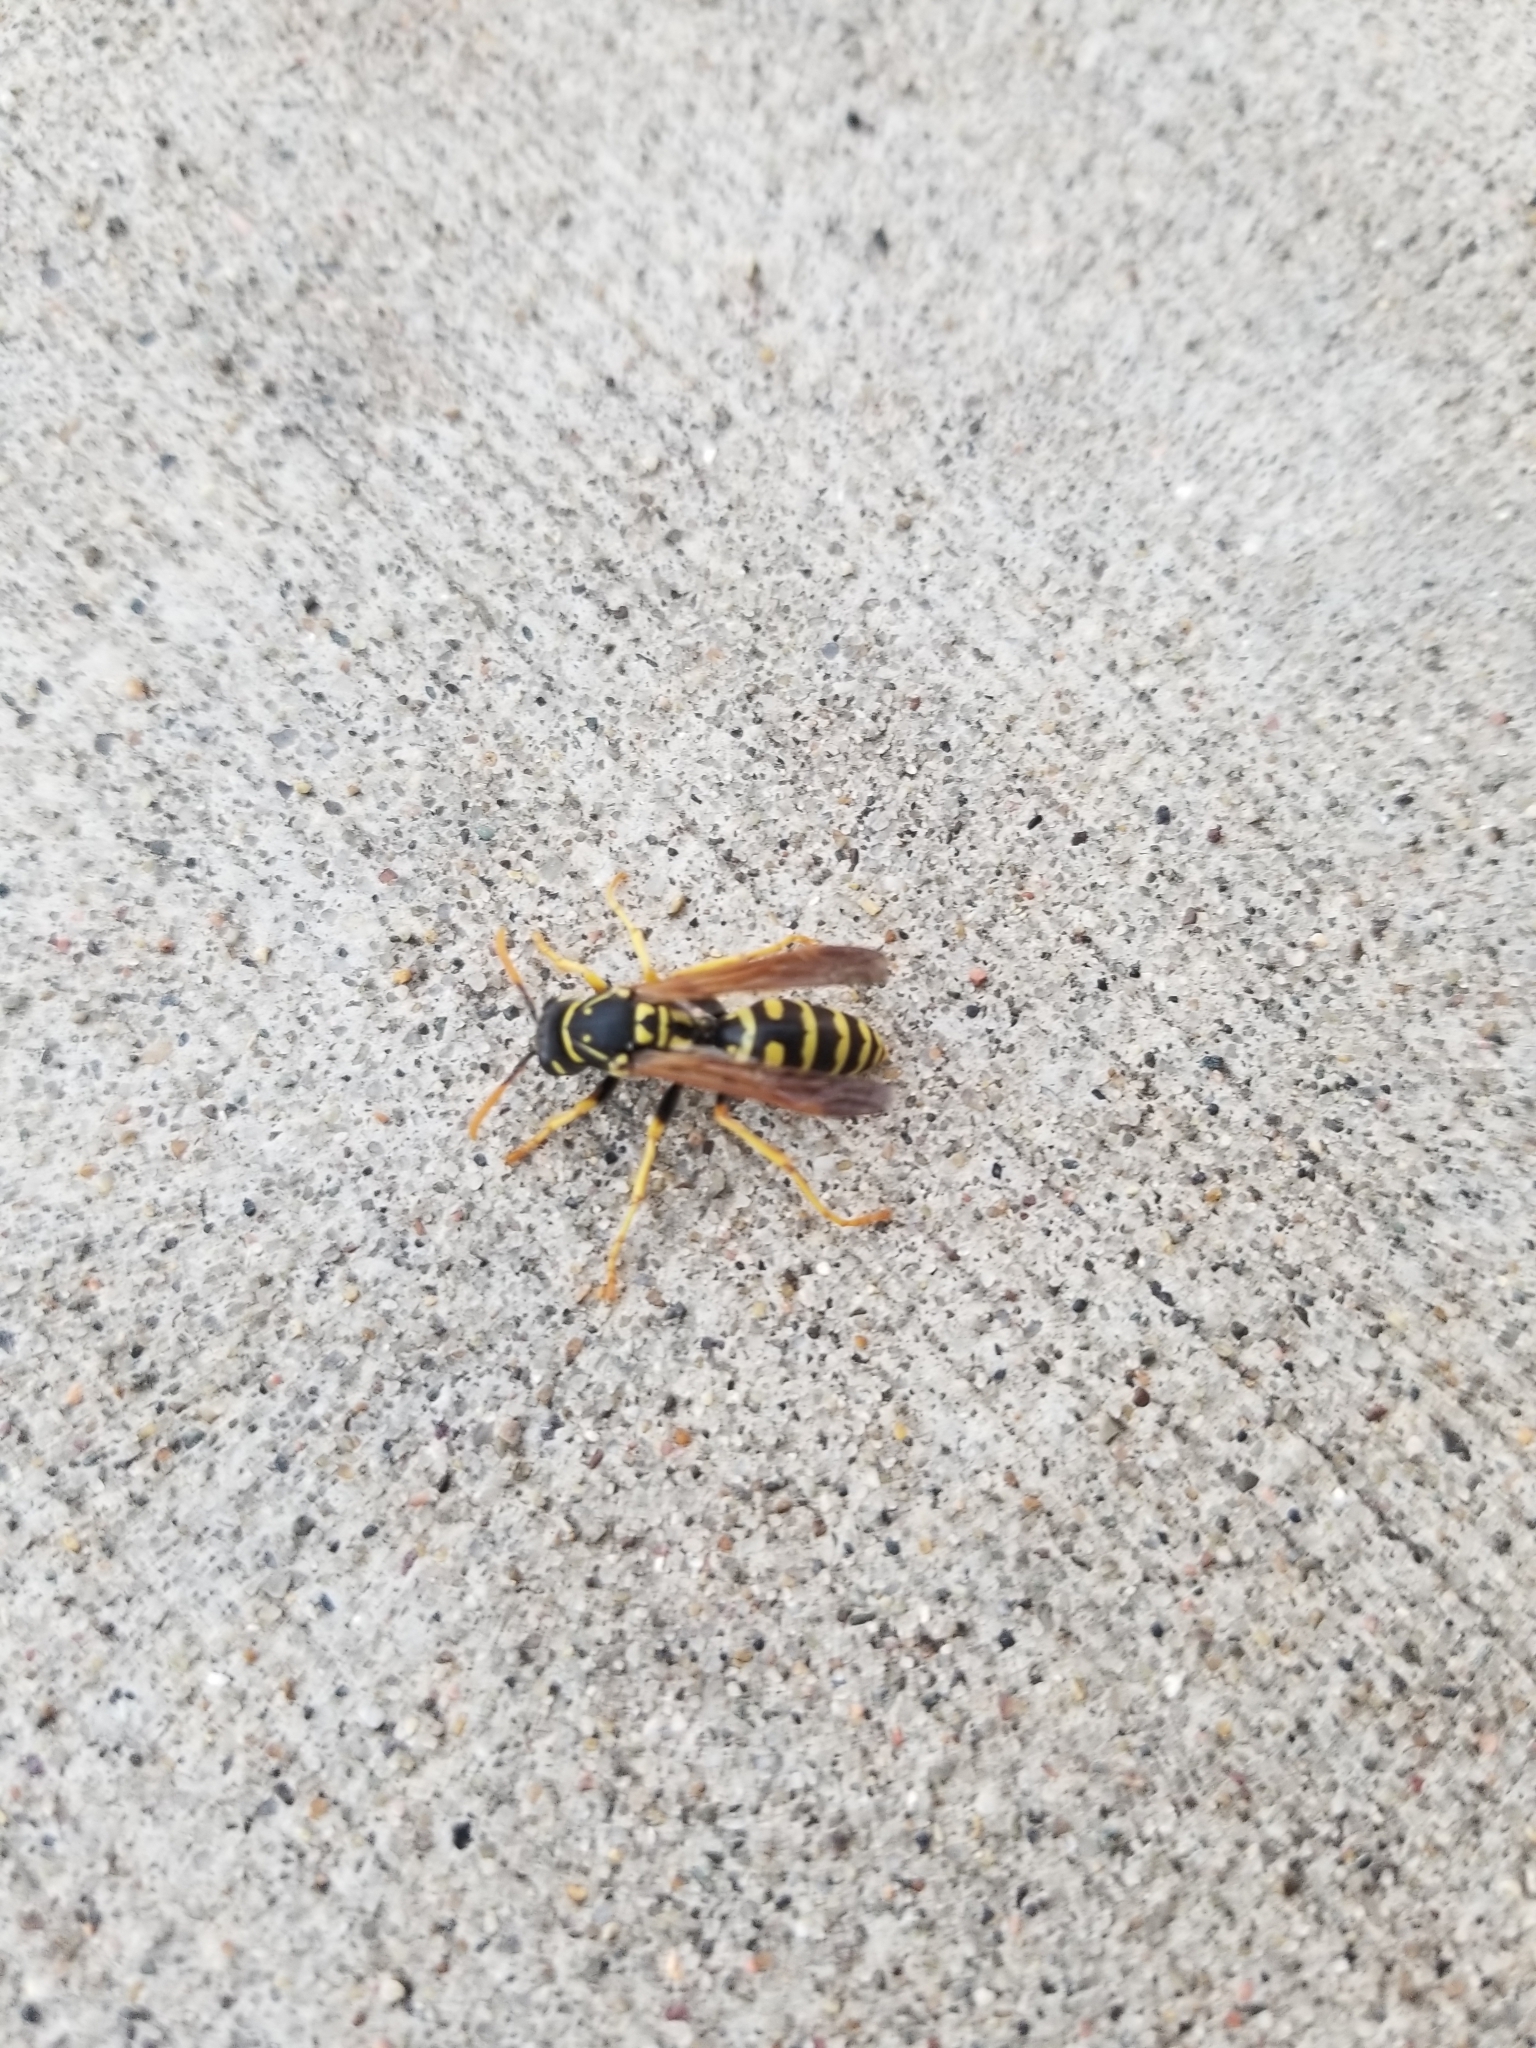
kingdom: Animalia
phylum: Arthropoda
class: Insecta
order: Hymenoptera
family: Eumenidae
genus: Polistes
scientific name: Polistes dominula
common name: Paper wasp
